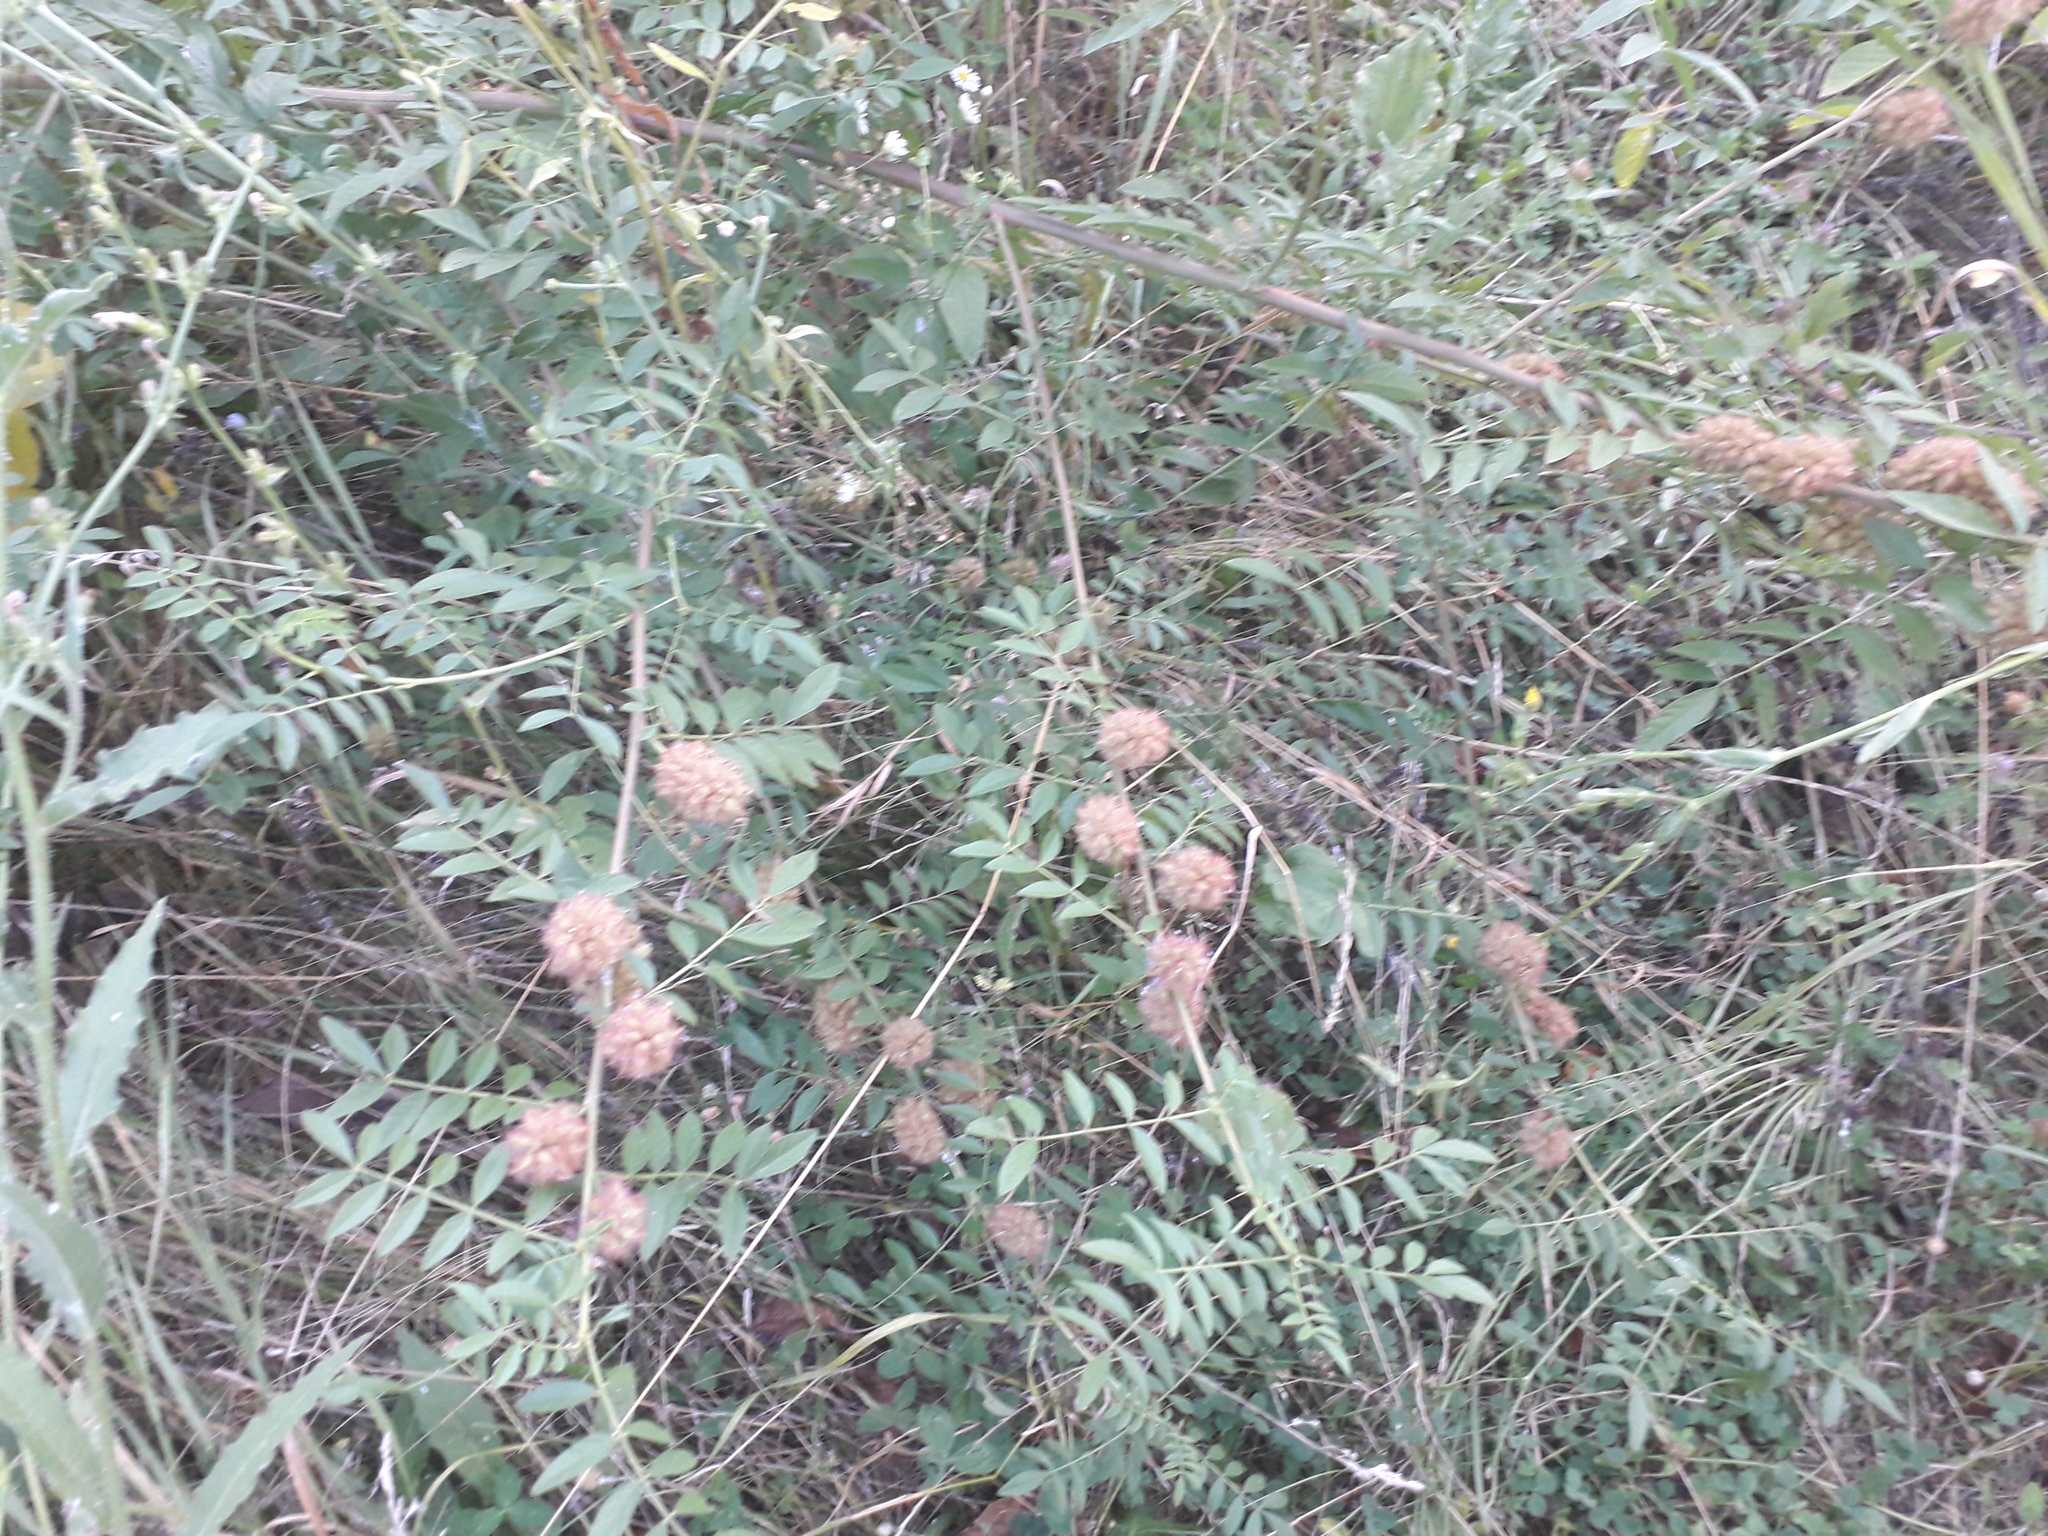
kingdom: Plantae
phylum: Tracheophyta
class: Magnoliopsida
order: Fabales
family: Fabaceae
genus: Glycyrrhiza
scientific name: Glycyrrhiza echinata
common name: German liquorice
